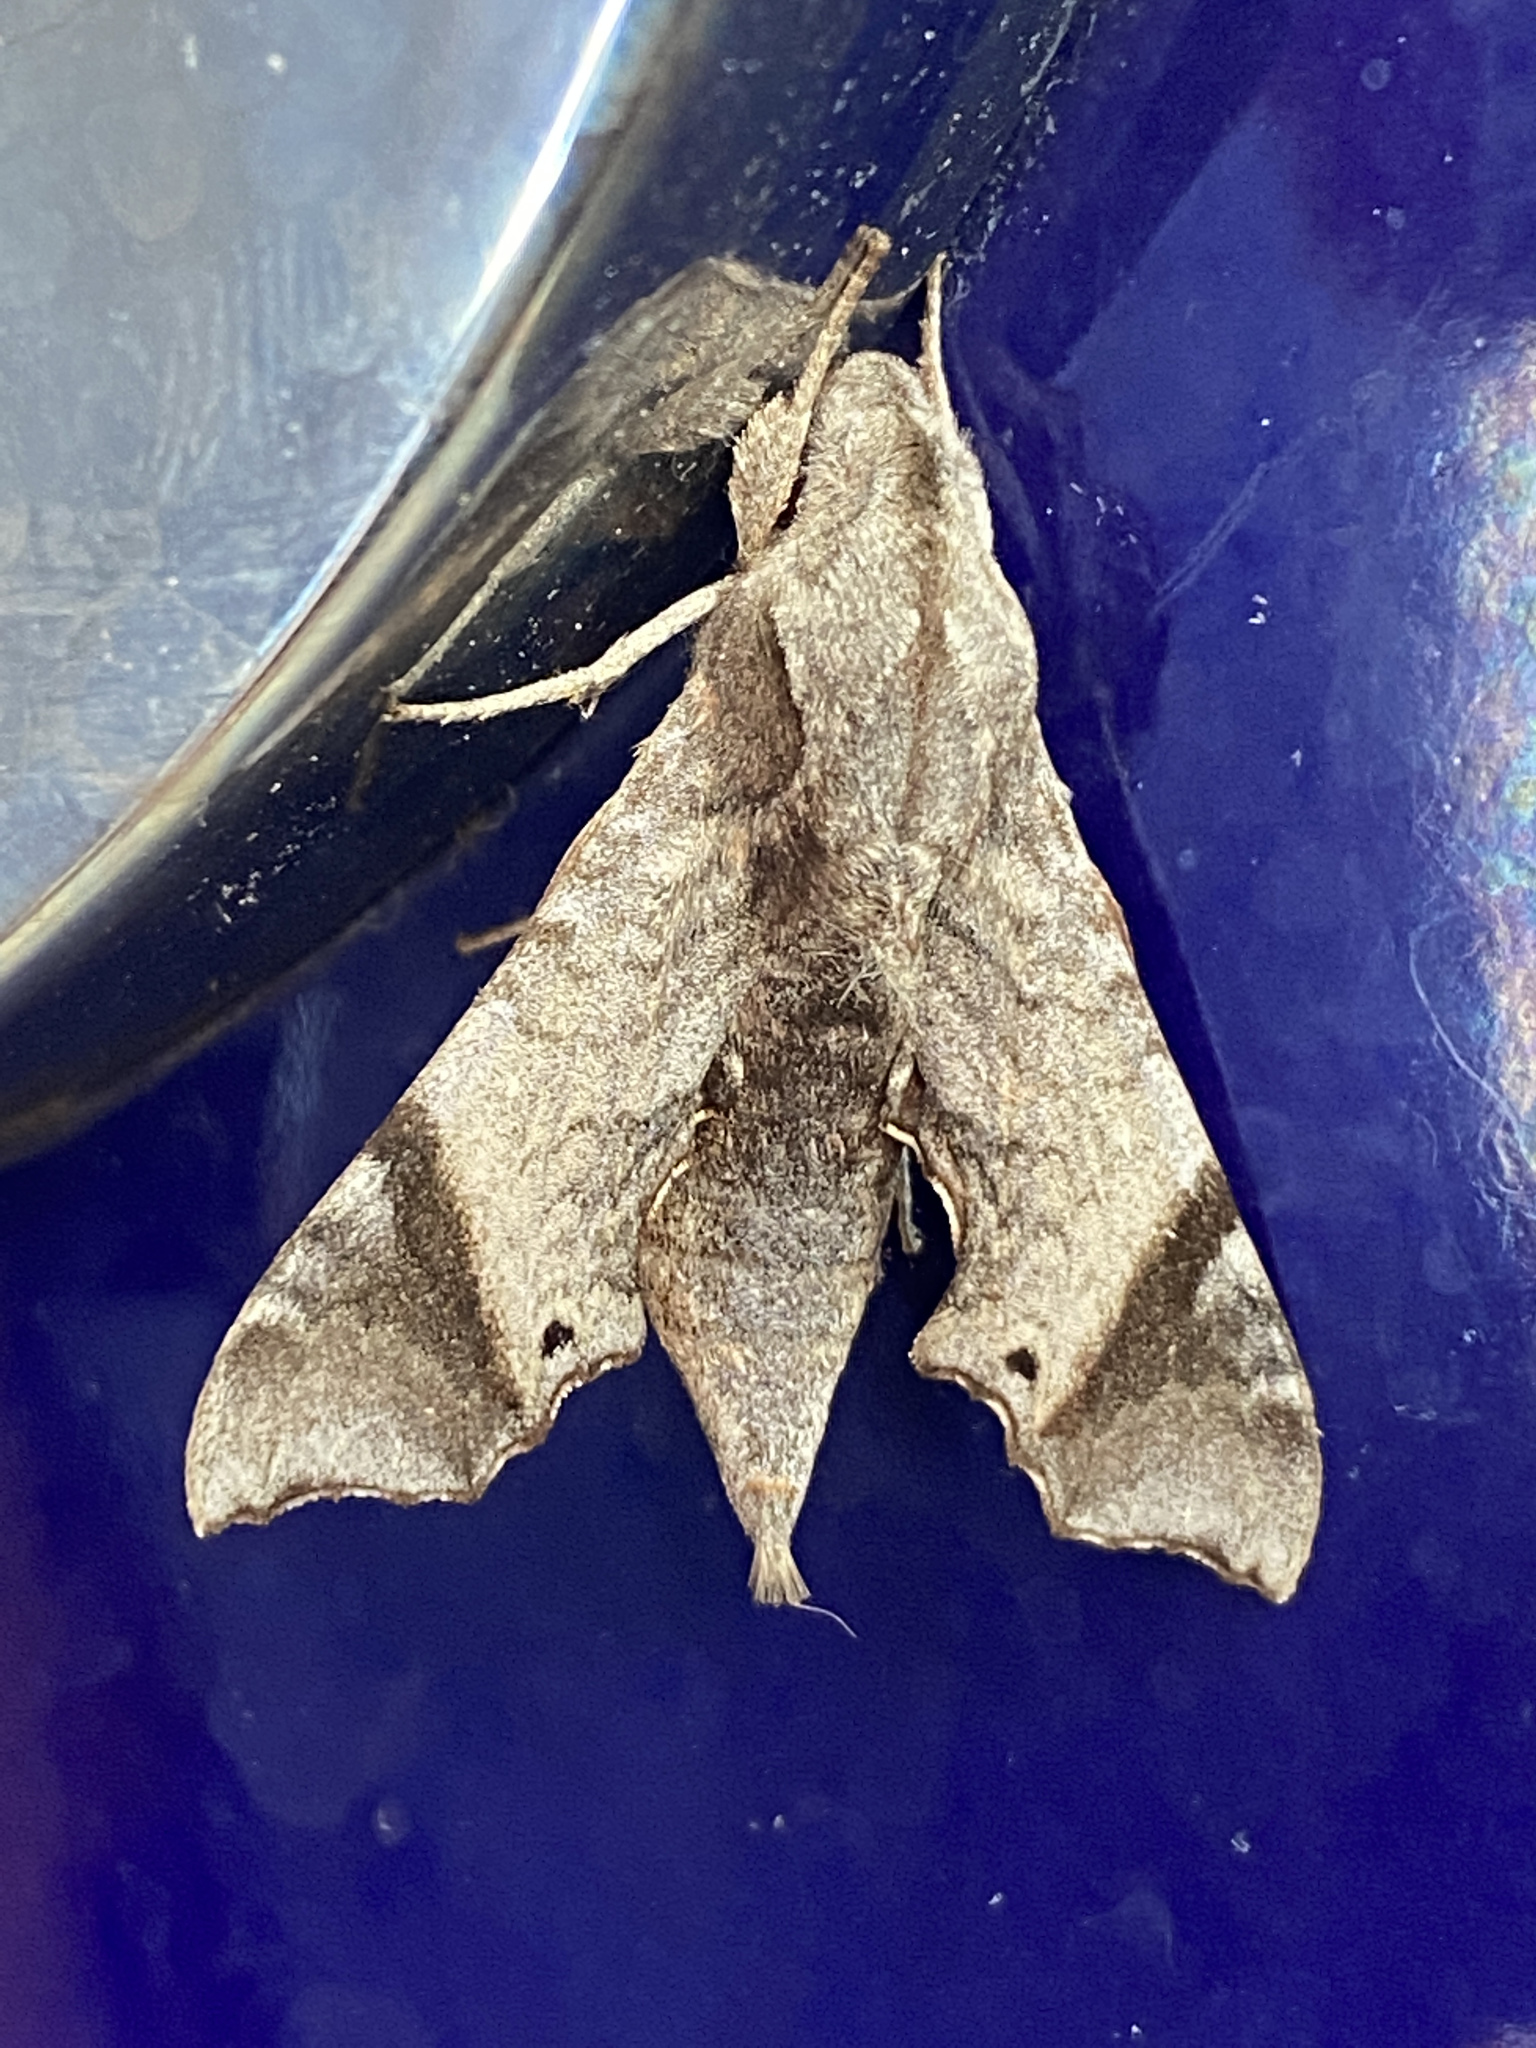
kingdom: Animalia
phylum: Arthropoda
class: Insecta
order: Lepidoptera
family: Sphingidae
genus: Temnora
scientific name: Temnora pylades
